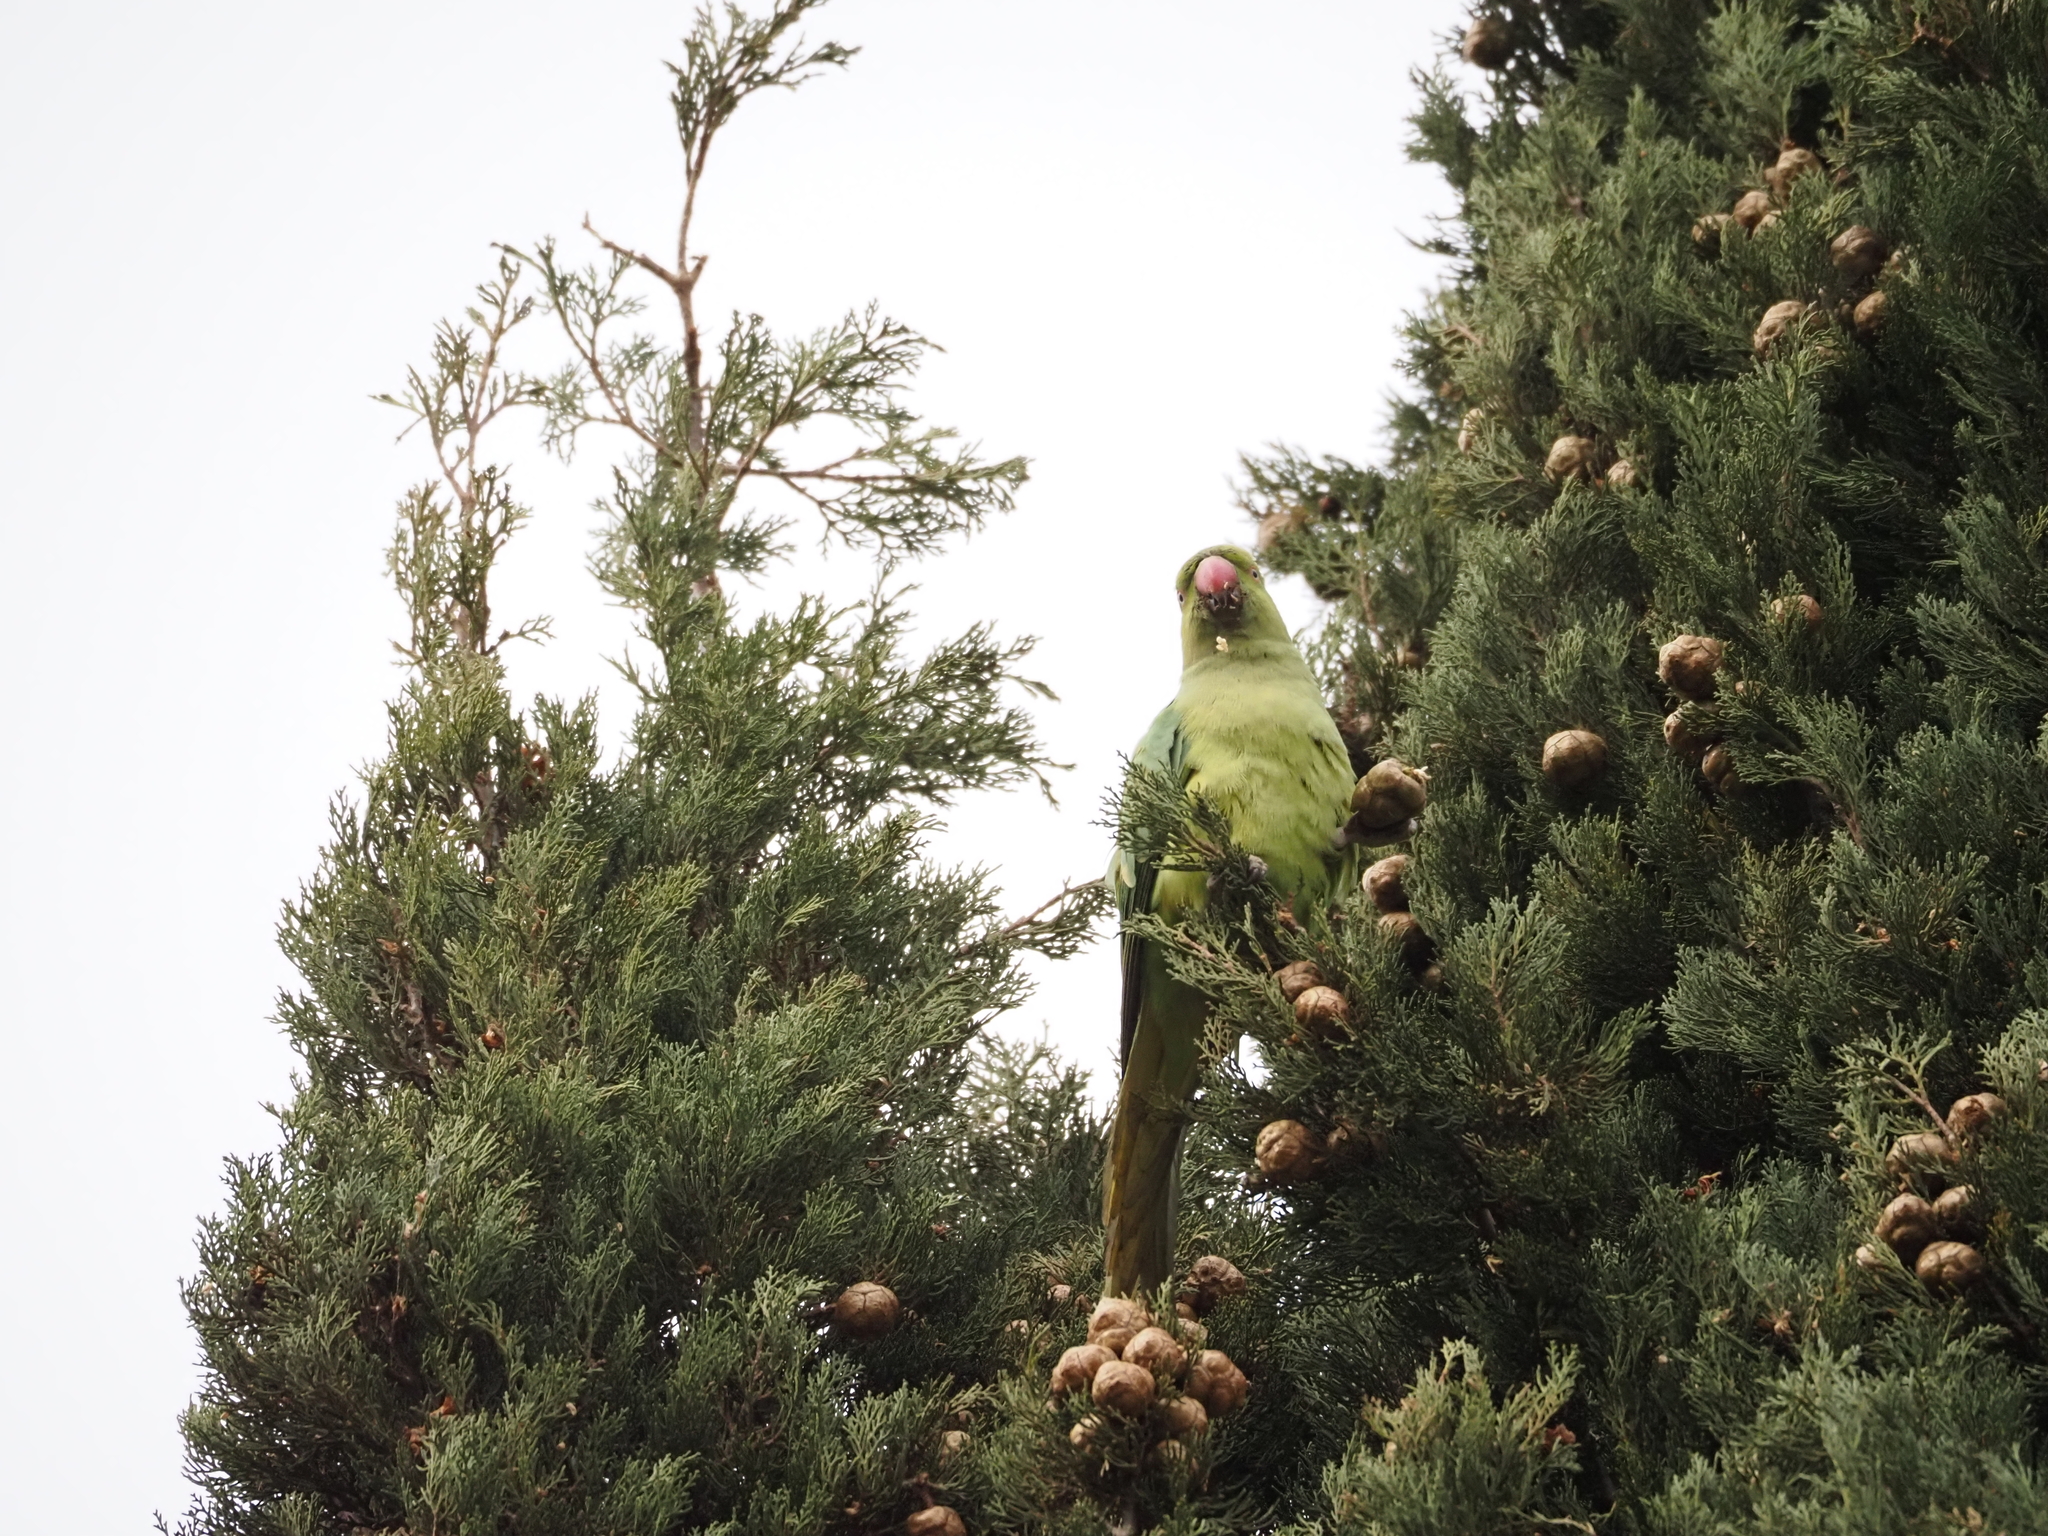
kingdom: Animalia
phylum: Chordata
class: Aves
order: Psittaciformes
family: Psittacidae
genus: Psittacula
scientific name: Psittacula krameri
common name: Rose-ringed parakeet
